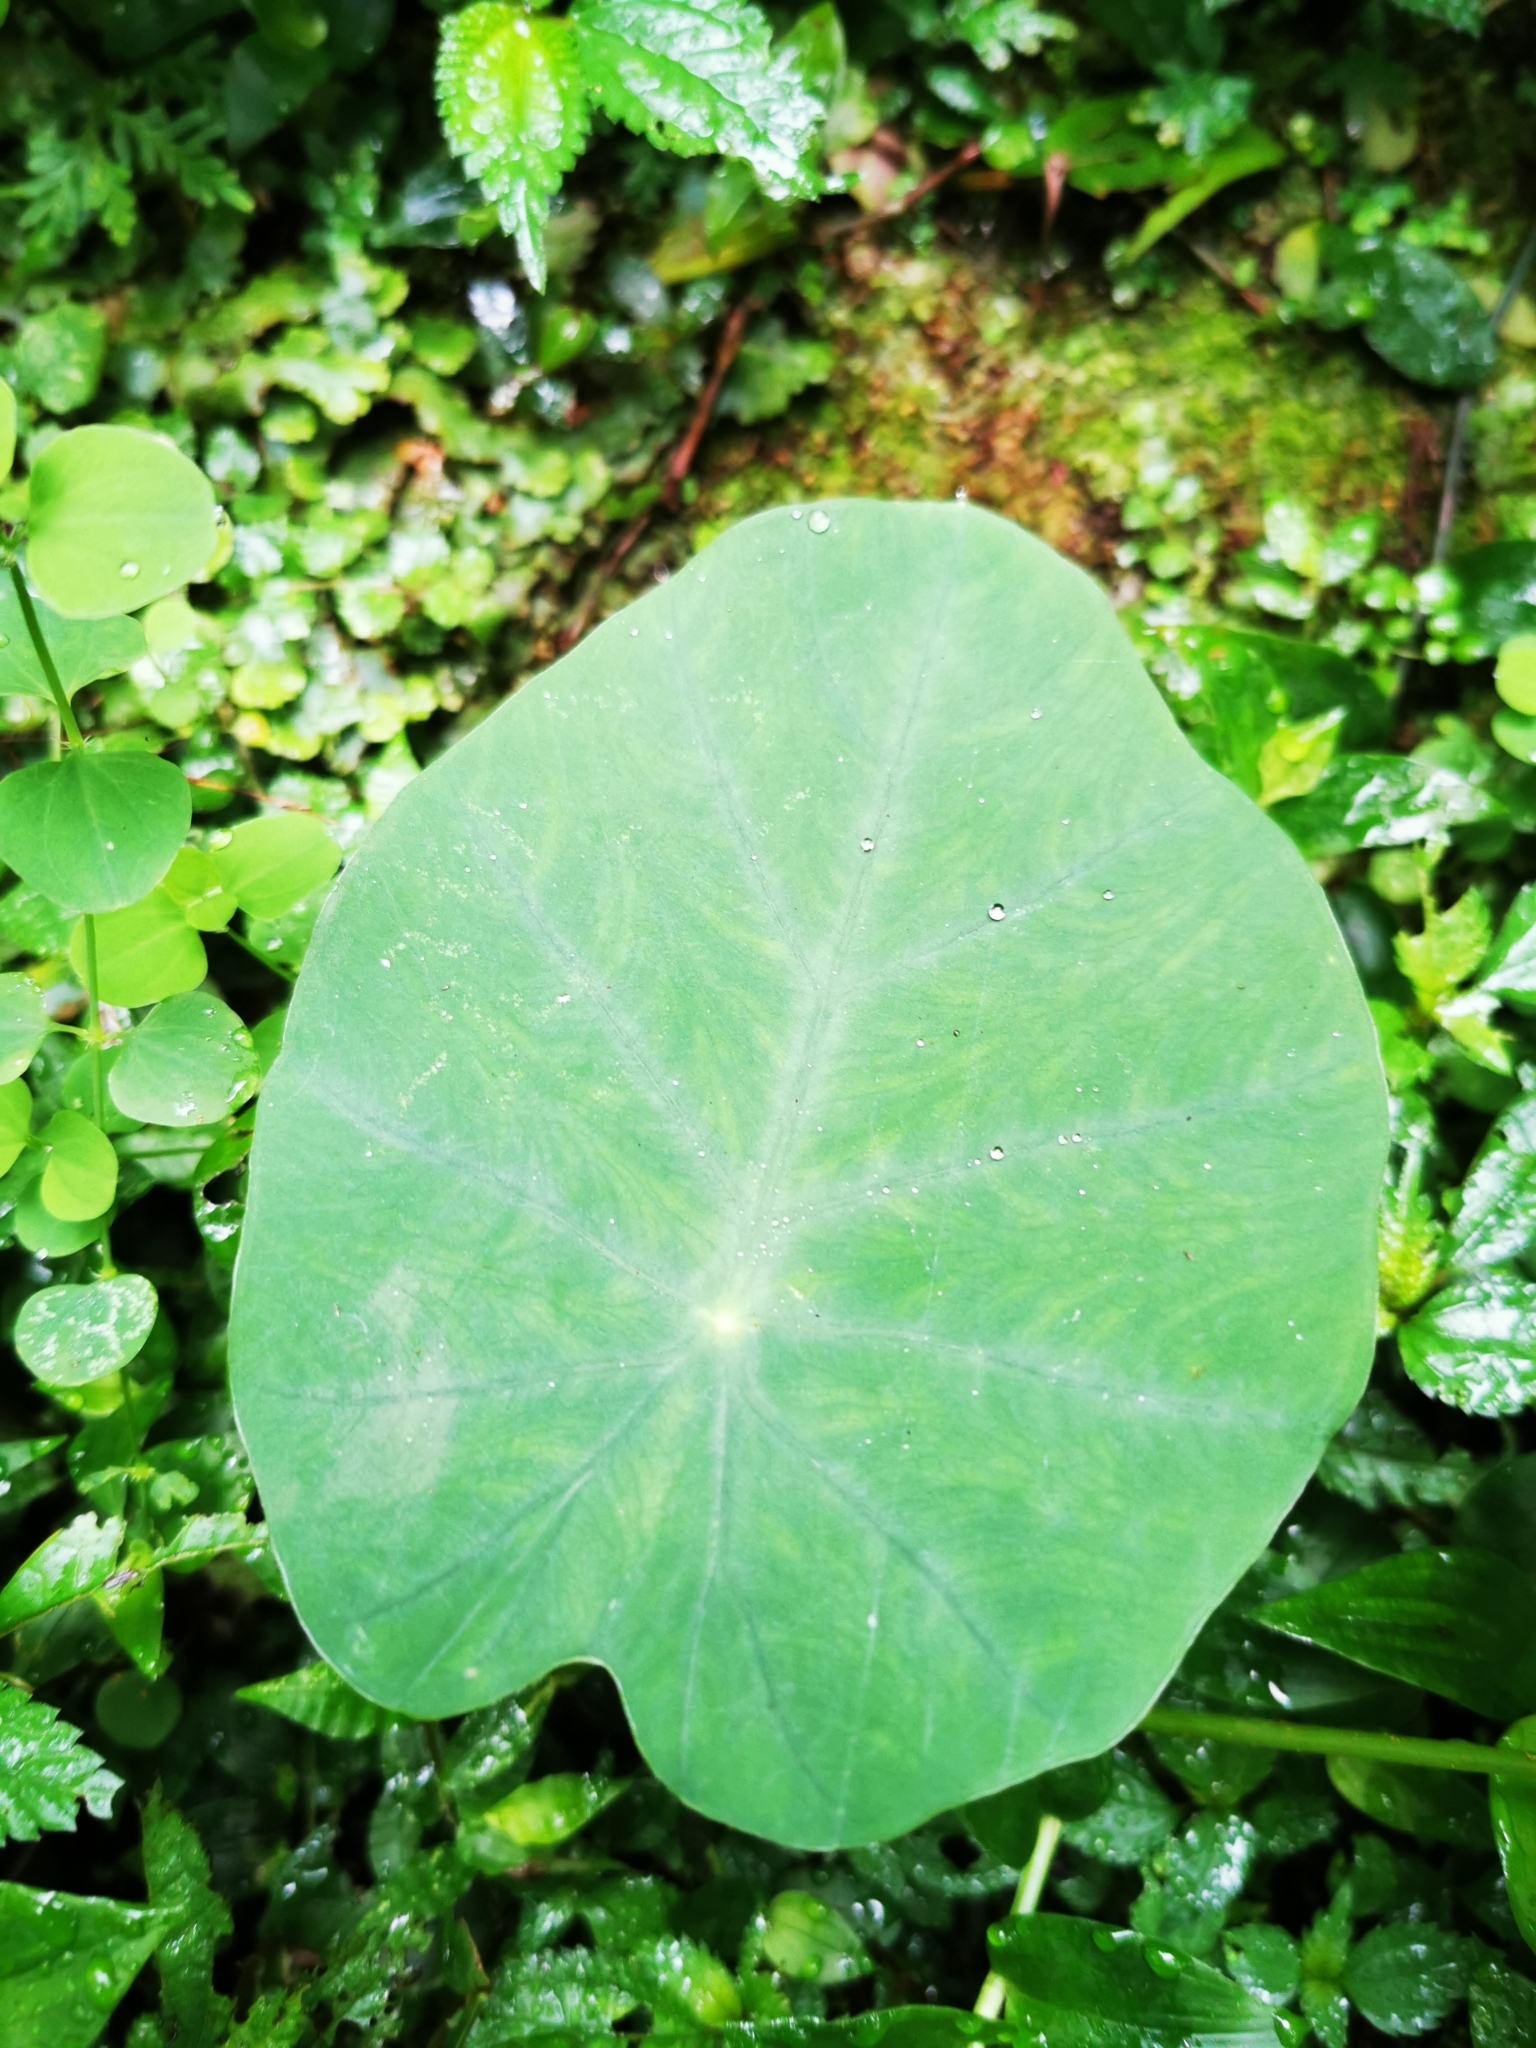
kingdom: Plantae
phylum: Tracheophyta
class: Liliopsida
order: Alismatales
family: Araceae
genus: Colocasia
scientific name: Colocasia esculenta
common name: Taro
